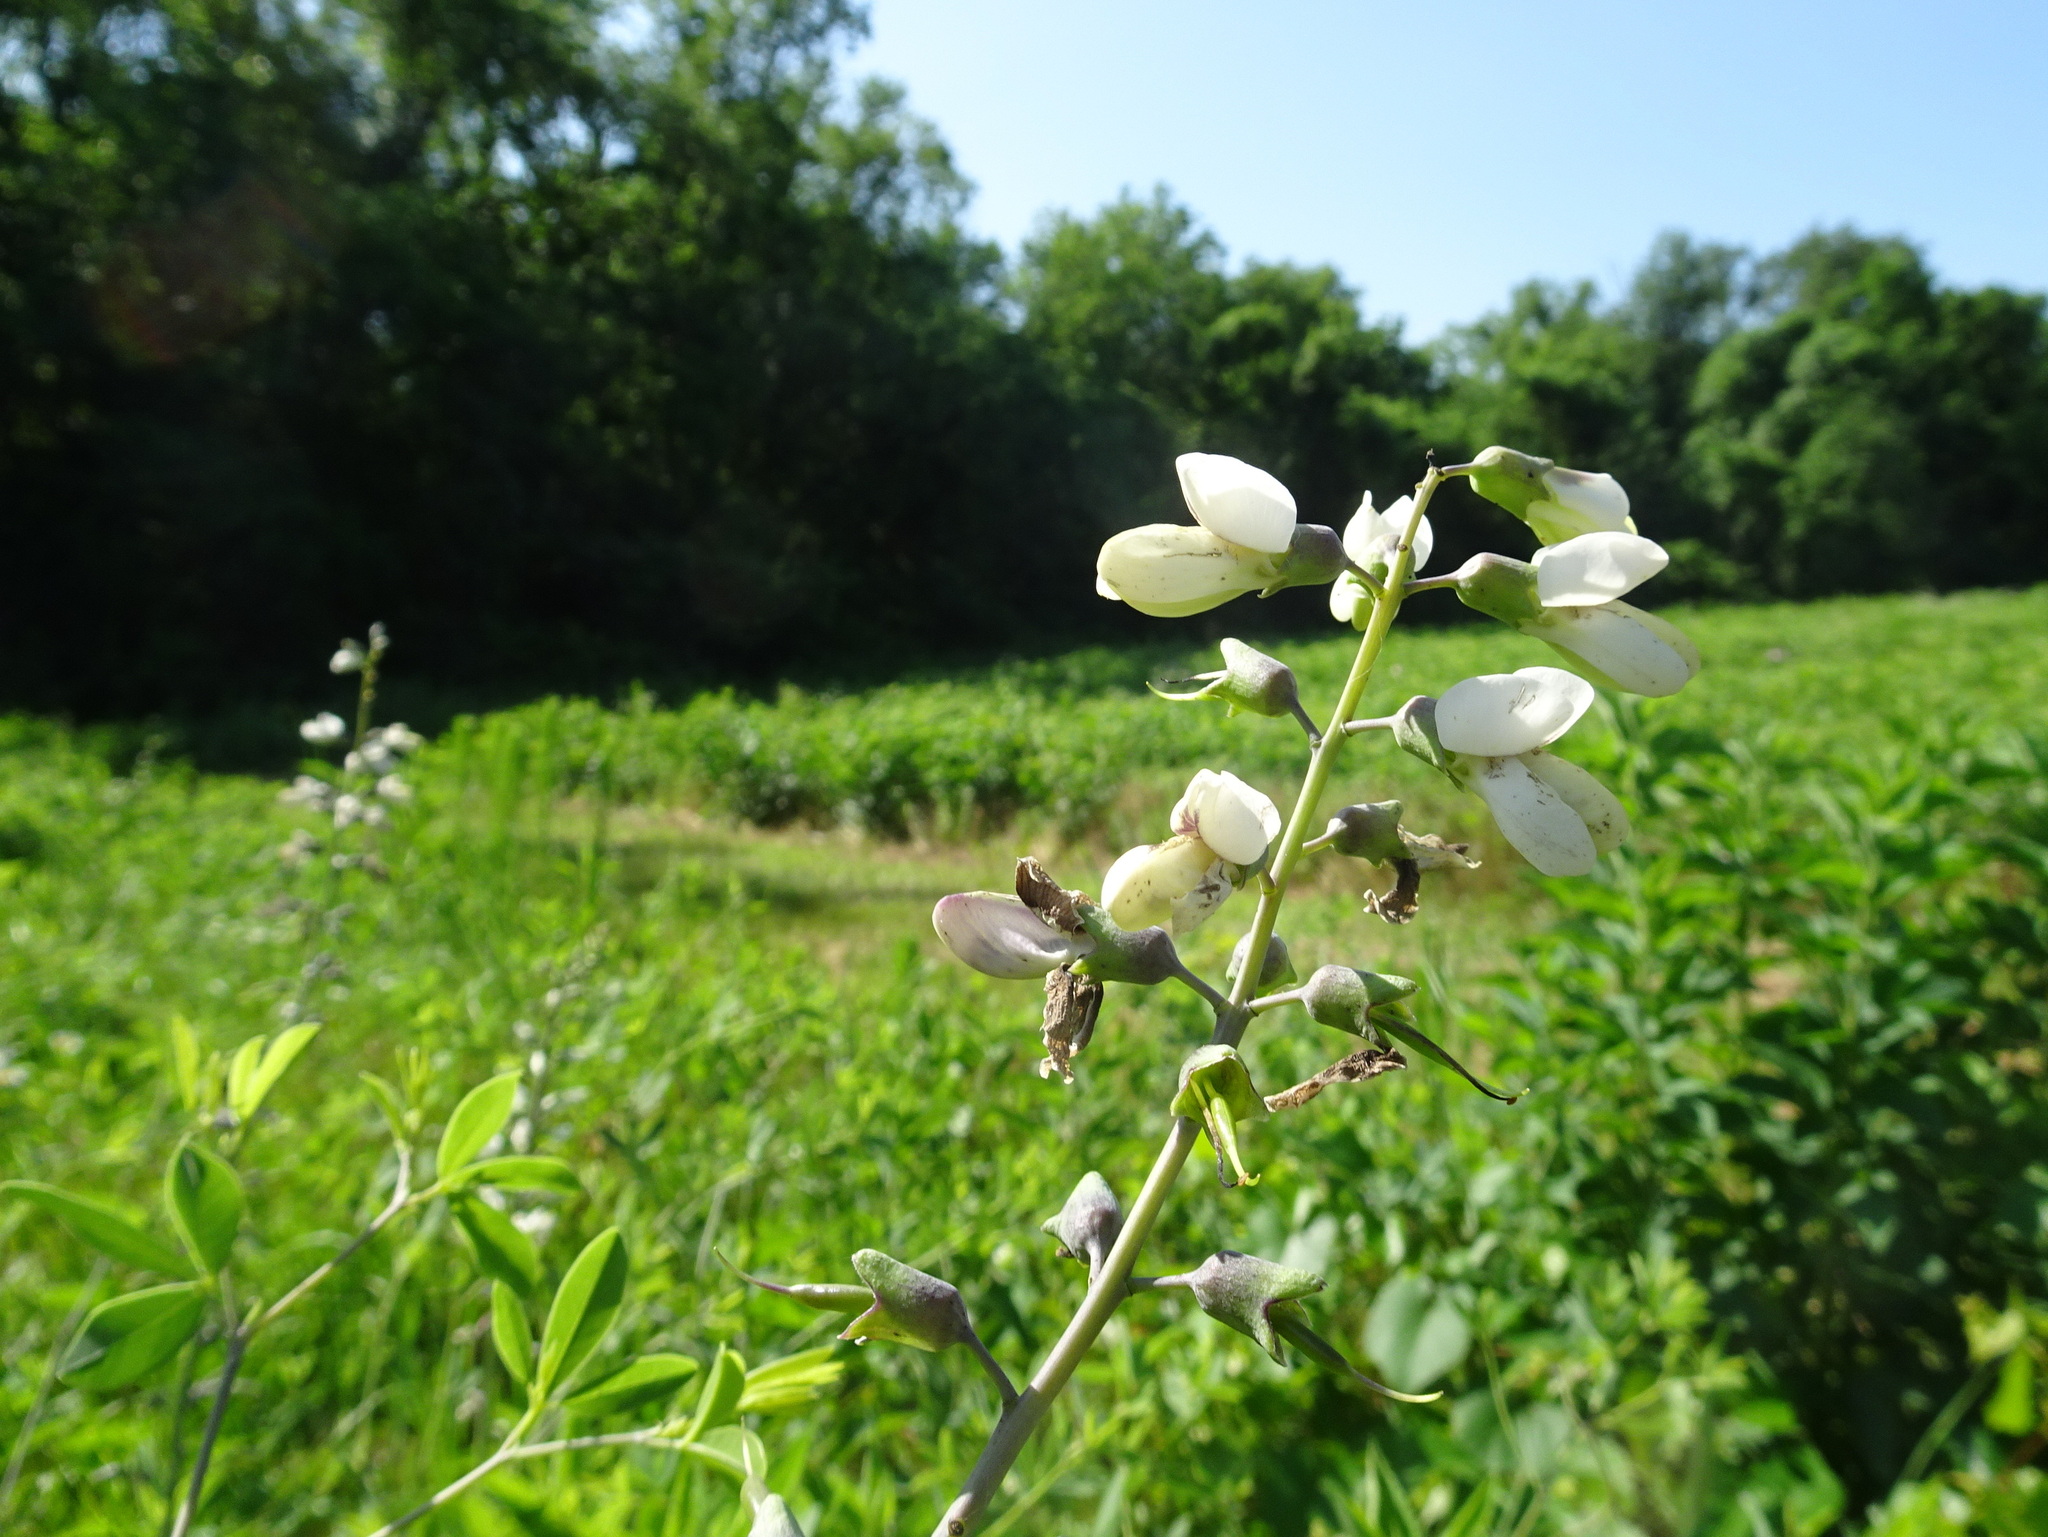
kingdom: Plantae
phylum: Tracheophyta
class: Magnoliopsida
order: Fabales
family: Fabaceae
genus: Baptisia
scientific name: Baptisia alba
